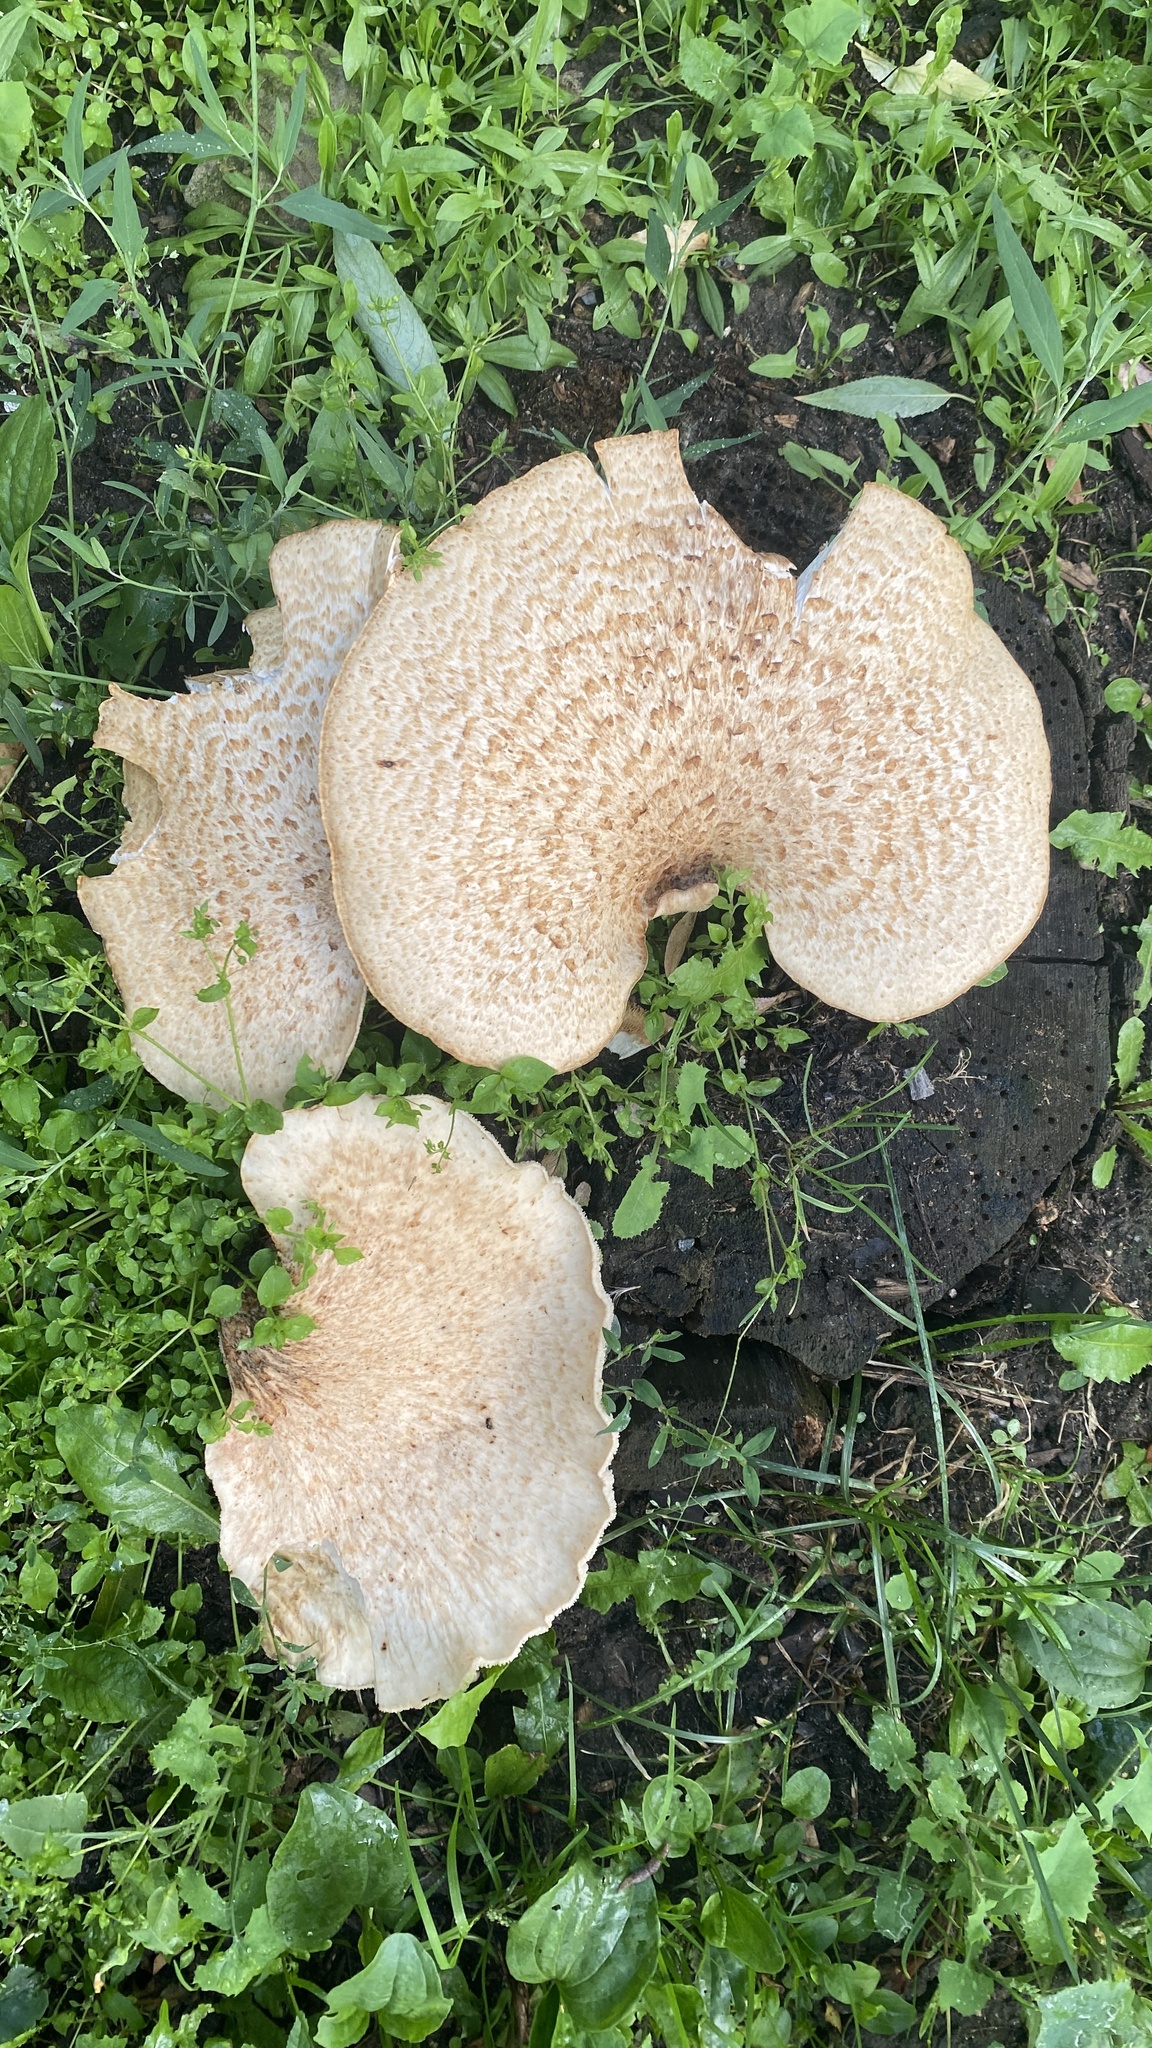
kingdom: Fungi
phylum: Basidiomycota
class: Agaricomycetes
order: Polyporales
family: Polyporaceae
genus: Cerioporus
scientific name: Cerioporus squamosus
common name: Dryad's saddle
